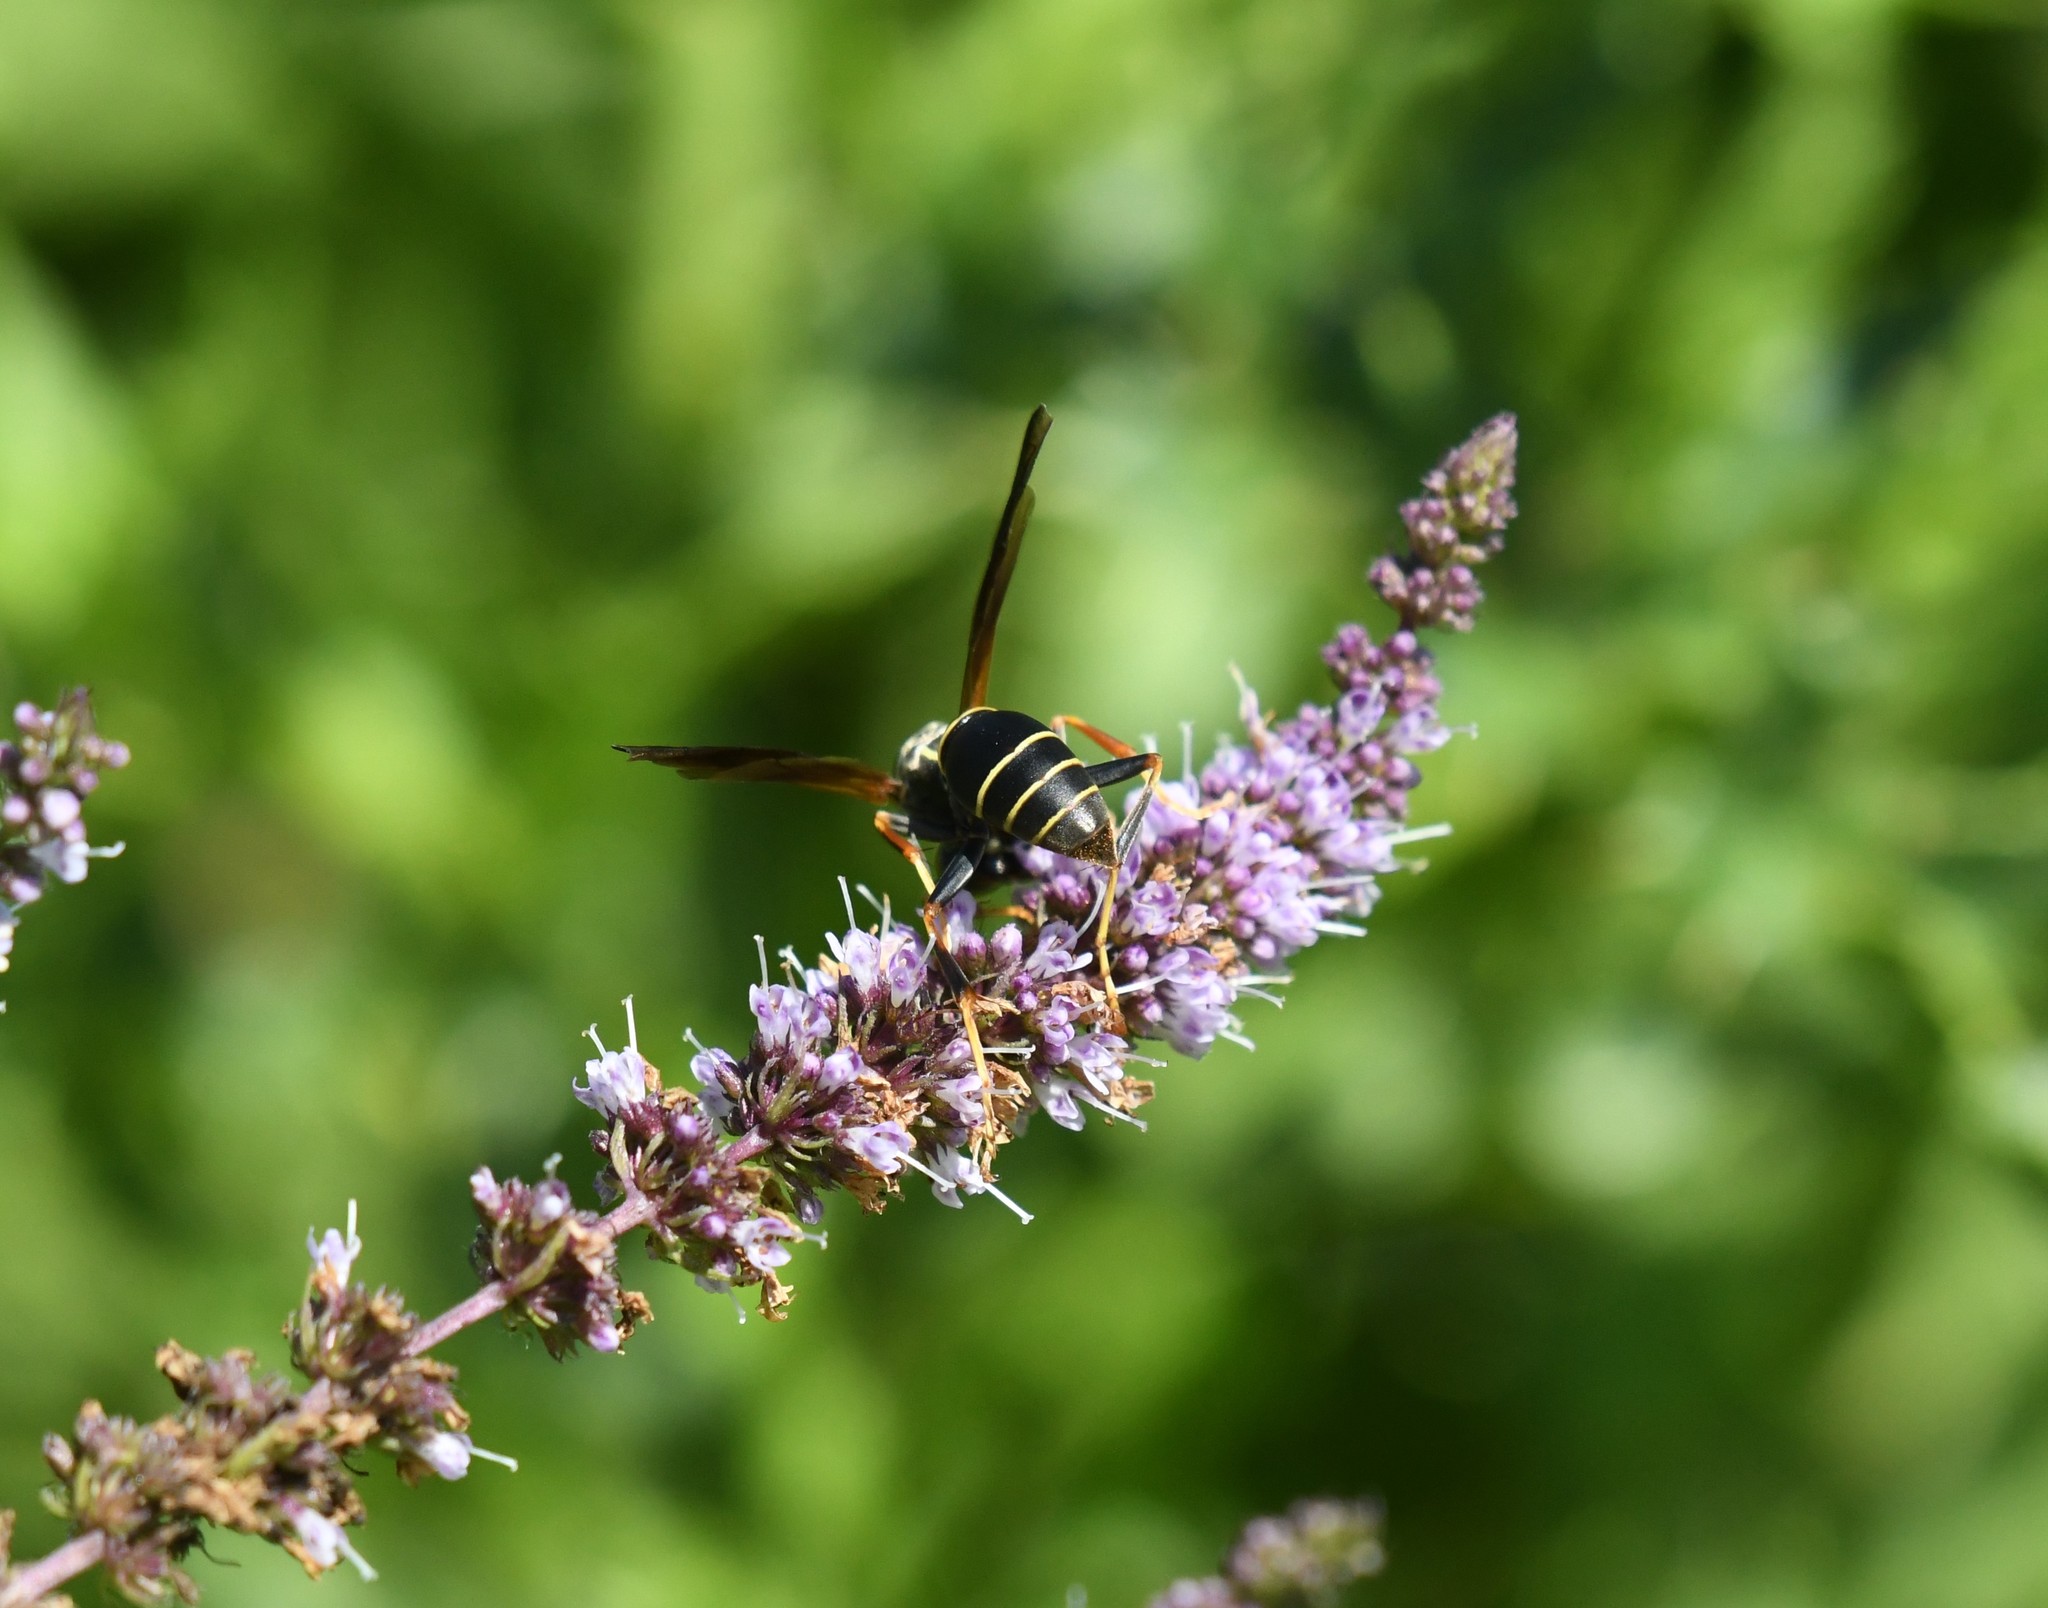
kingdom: Animalia
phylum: Arthropoda
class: Insecta
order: Hymenoptera
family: Eumenidae
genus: Polistes
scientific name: Polistes fuscatus
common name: Dark paper wasp
